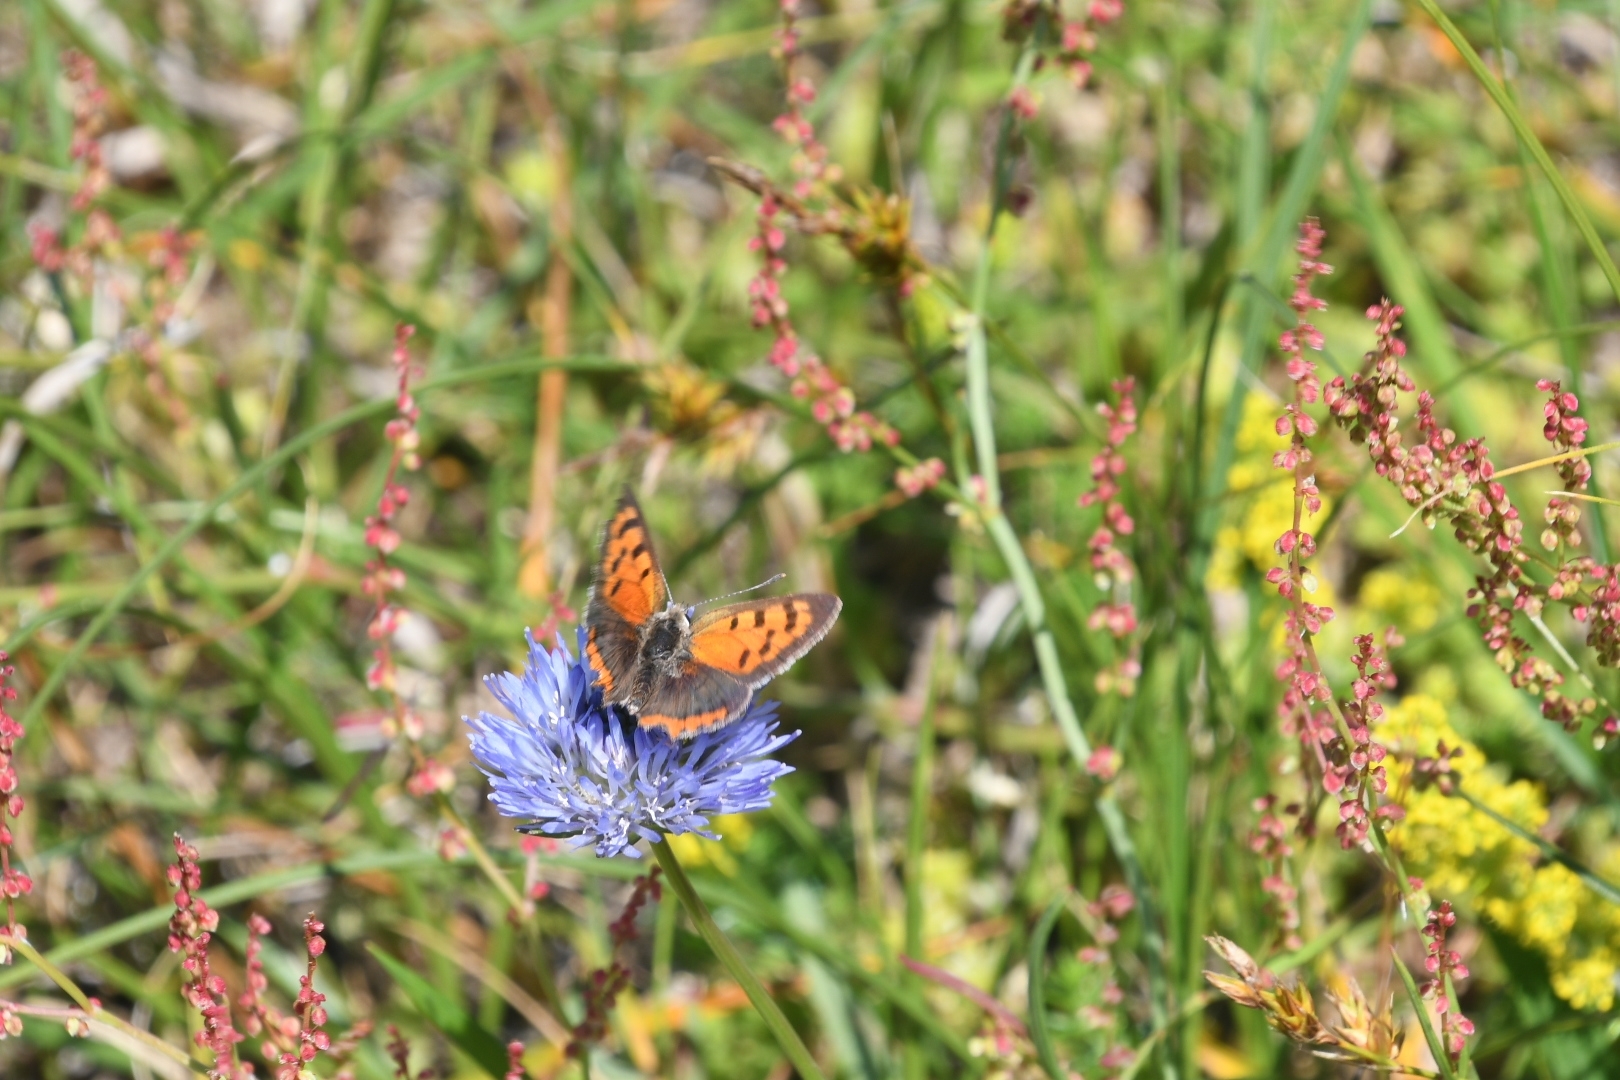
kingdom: Animalia
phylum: Arthropoda
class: Insecta
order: Lepidoptera
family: Lycaenidae
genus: Lycaena
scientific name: Lycaena phlaeas
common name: Small copper
